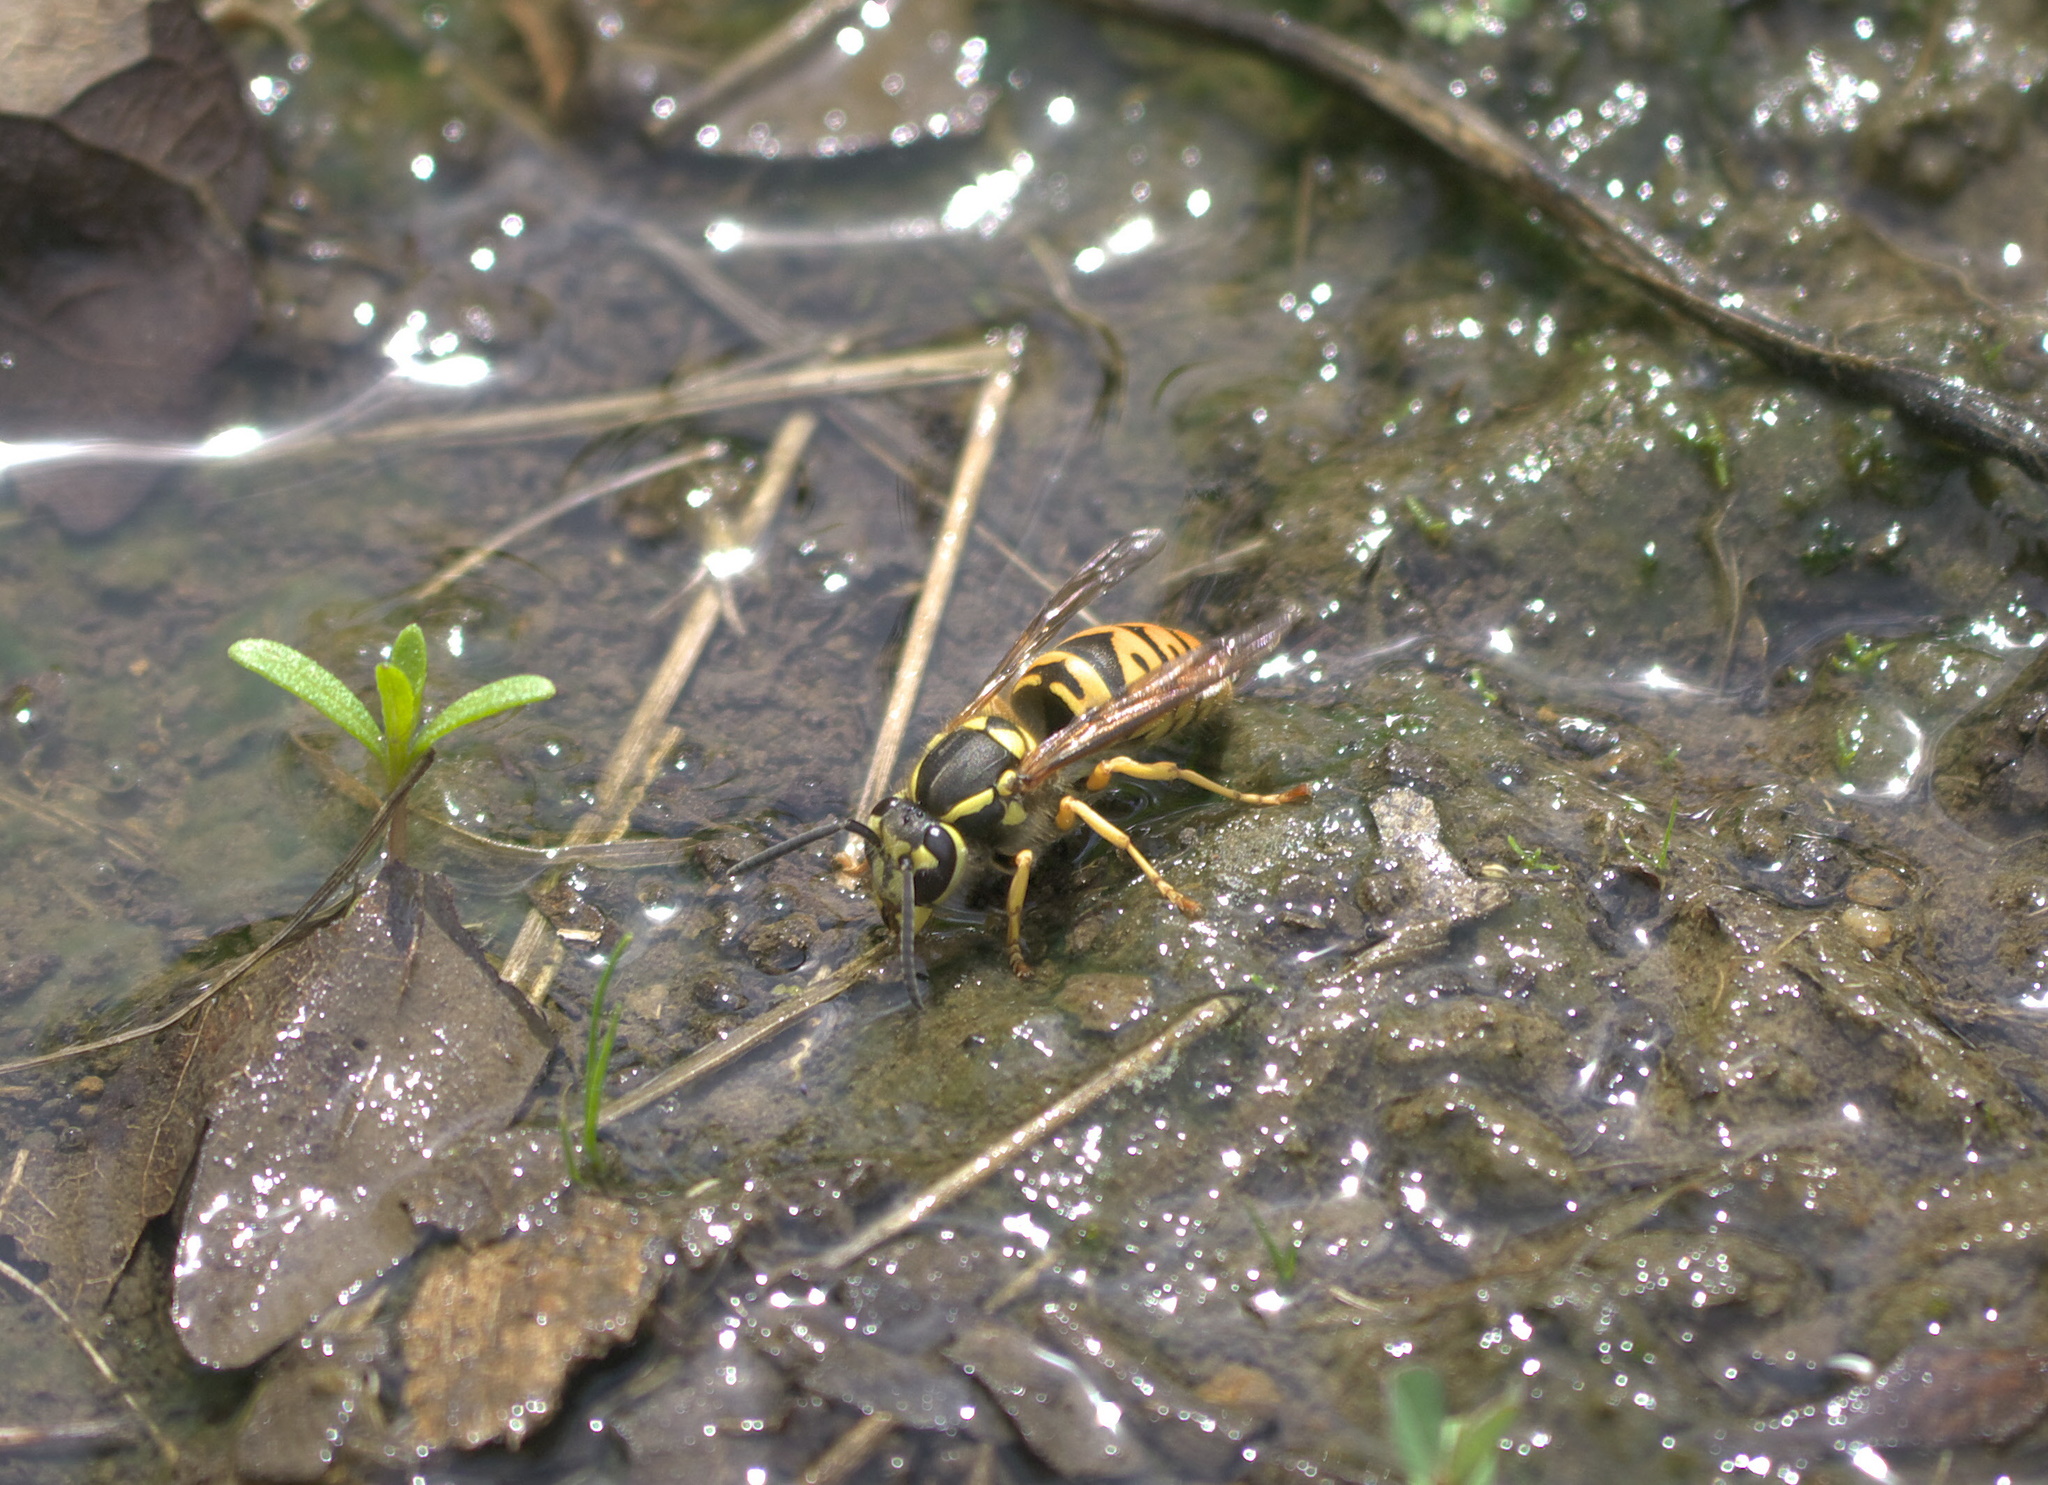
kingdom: Animalia
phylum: Arthropoda
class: Insecta
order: Hymenoptera
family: Vespidae
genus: Vespula
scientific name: Vespula maculifrons
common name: Eastern yellowjacket
